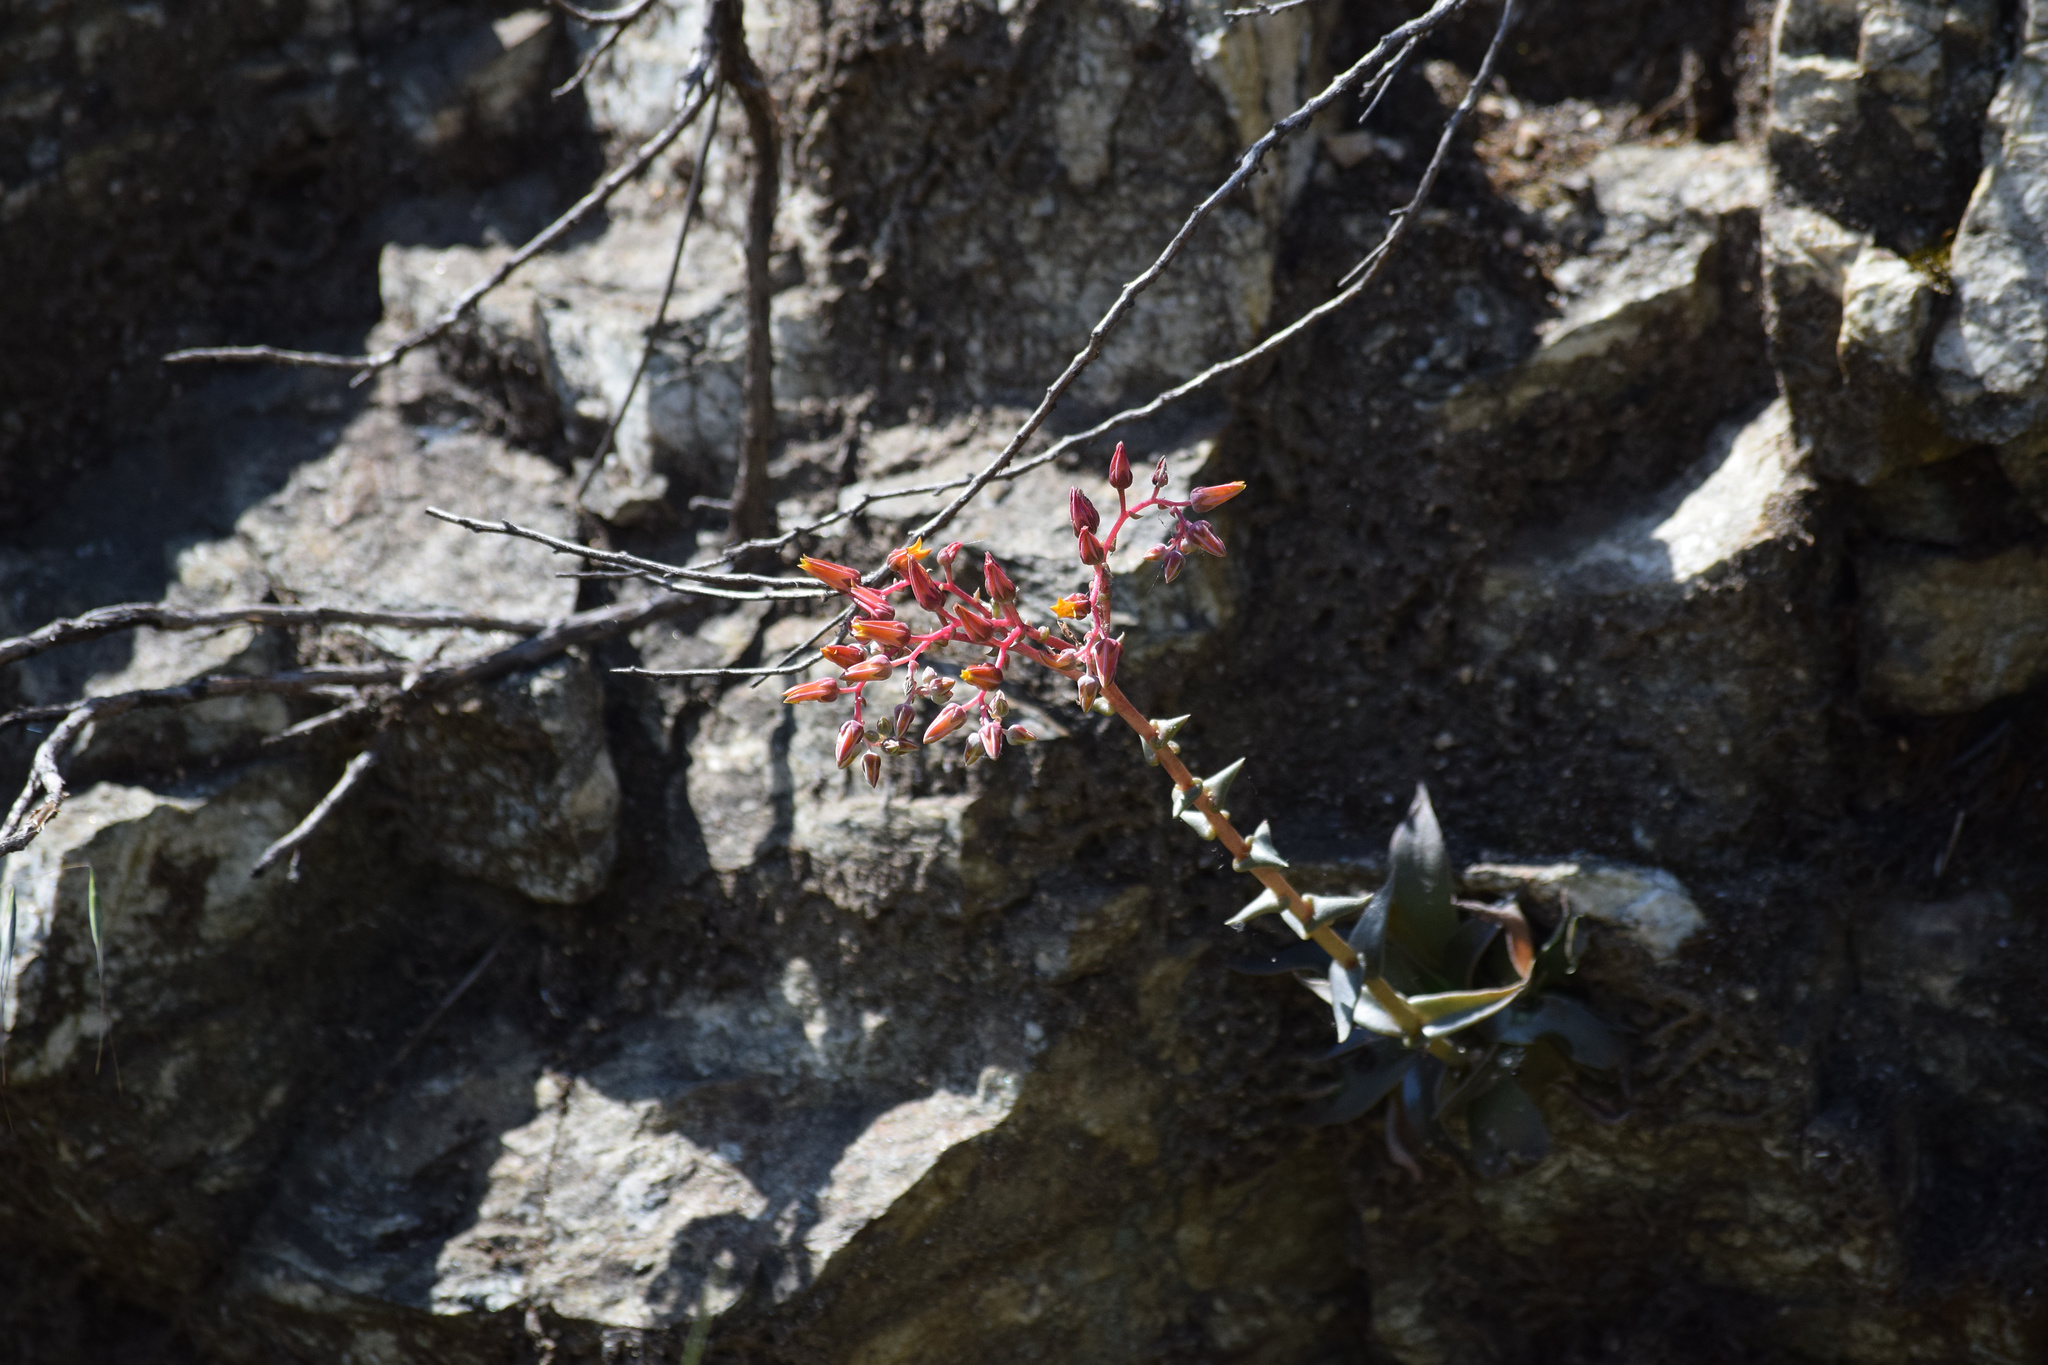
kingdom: Plantae
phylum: Tracheophyta
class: Magnoliopsida
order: Saxifragales
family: Crassulaceae
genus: Dudleya
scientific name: Dudleya lanceolata
